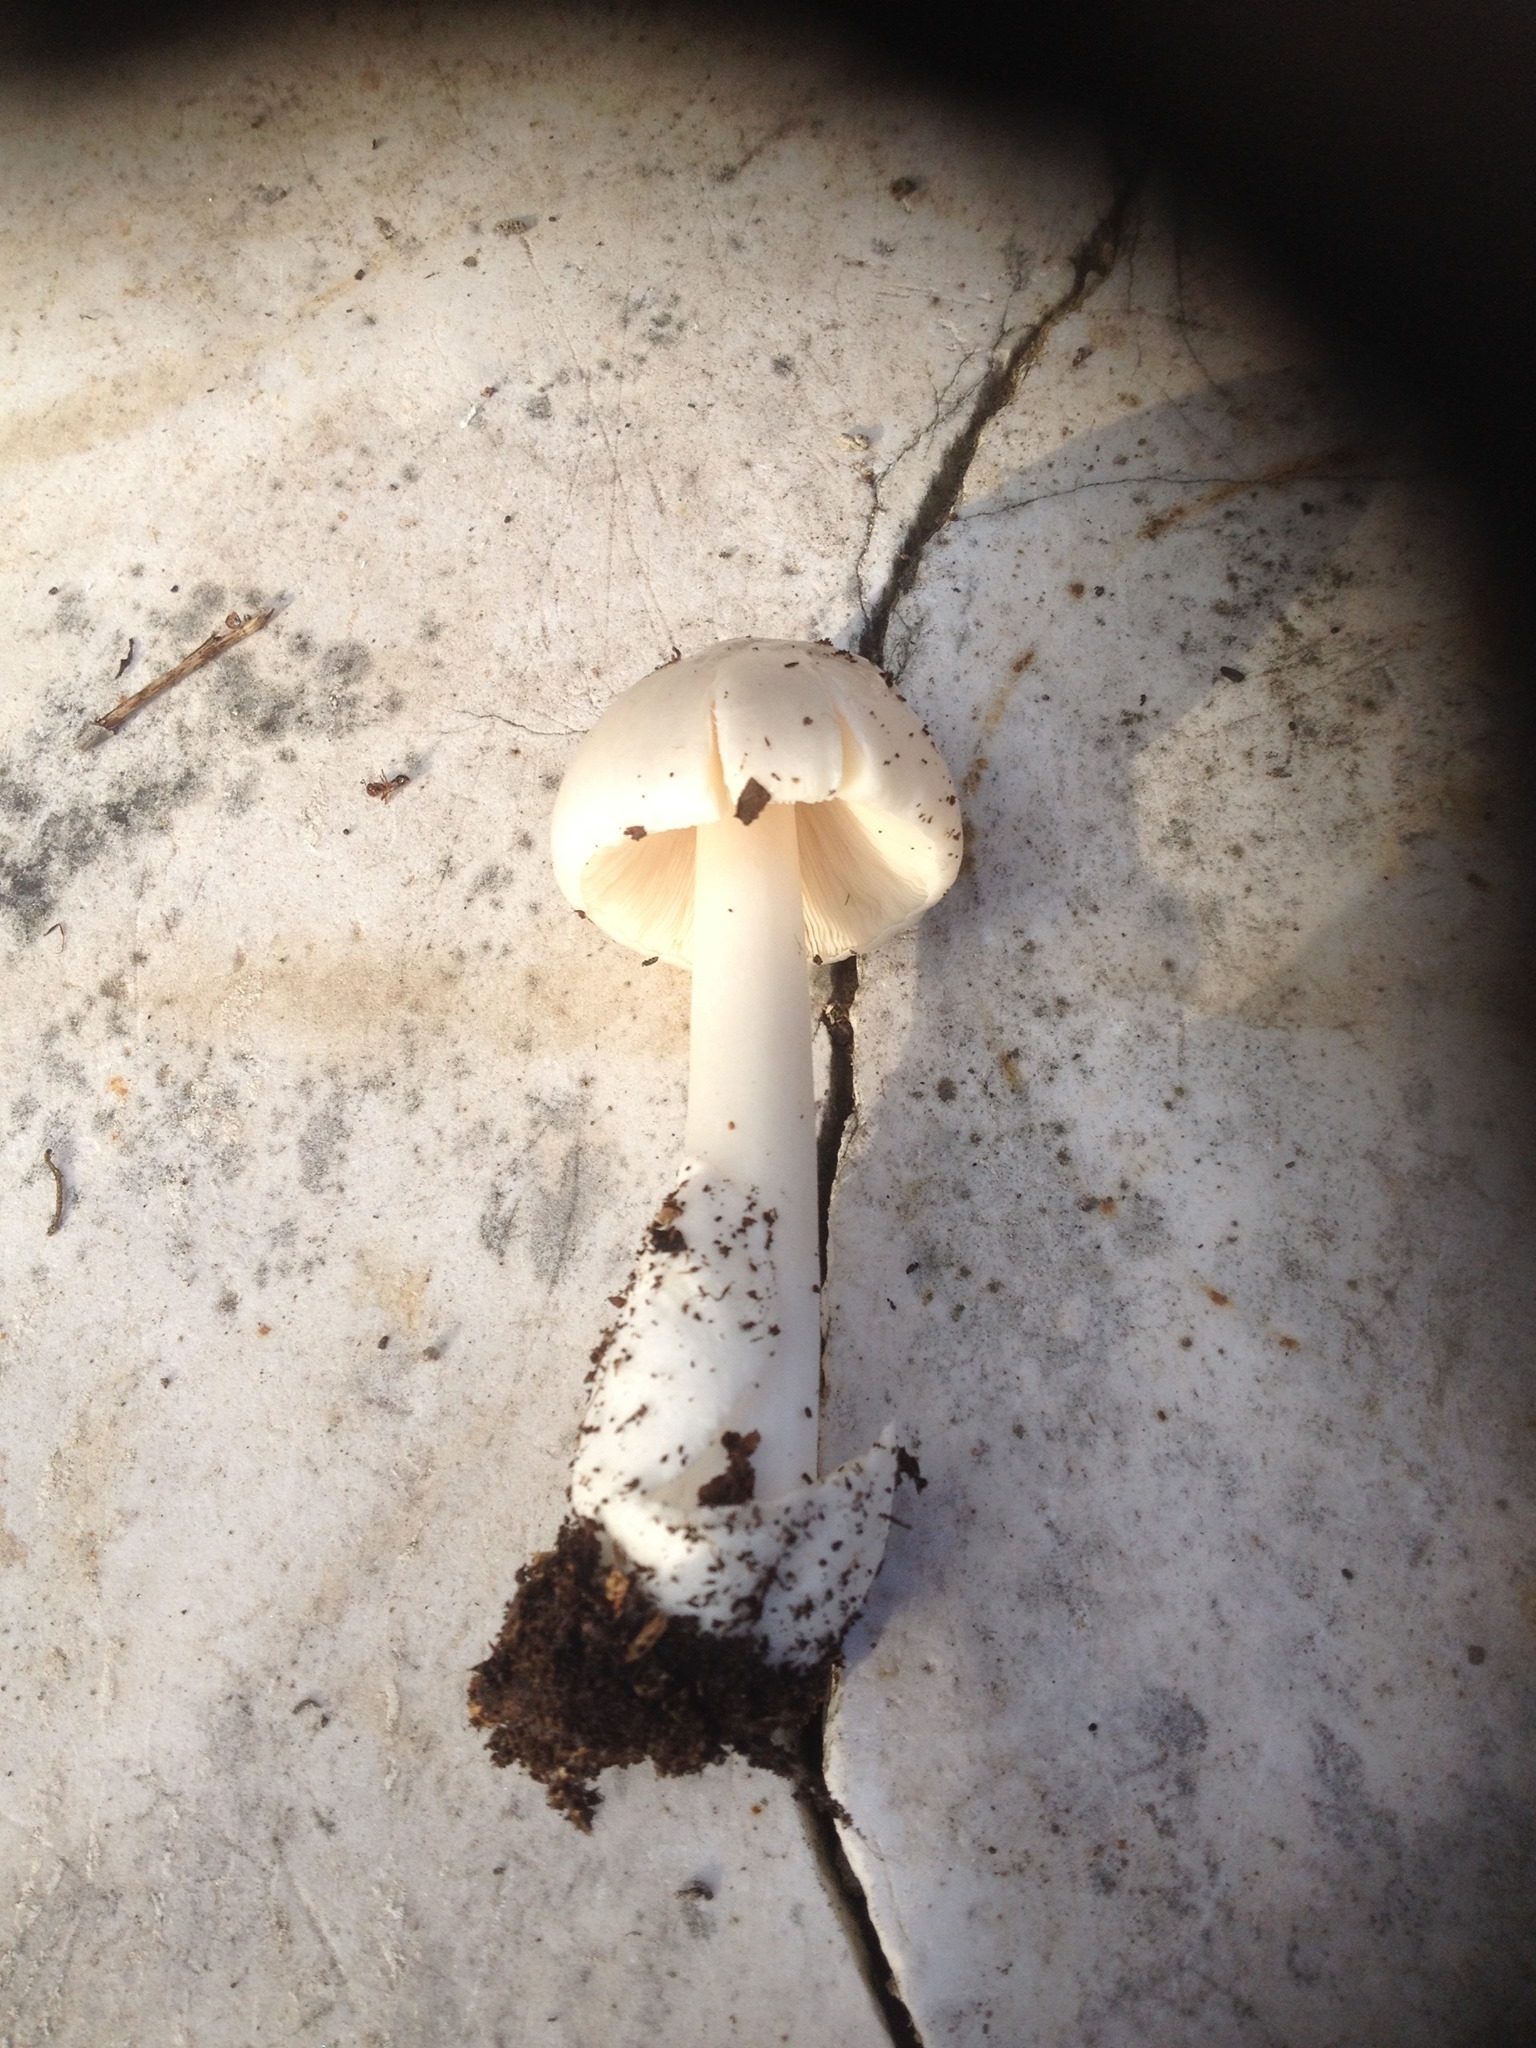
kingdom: Fungi
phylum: Basidiomycota
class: Agaricomycetes
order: Agaricales
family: Pluteaceae
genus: Volvopluteus
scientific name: Volvopluteus earlei
